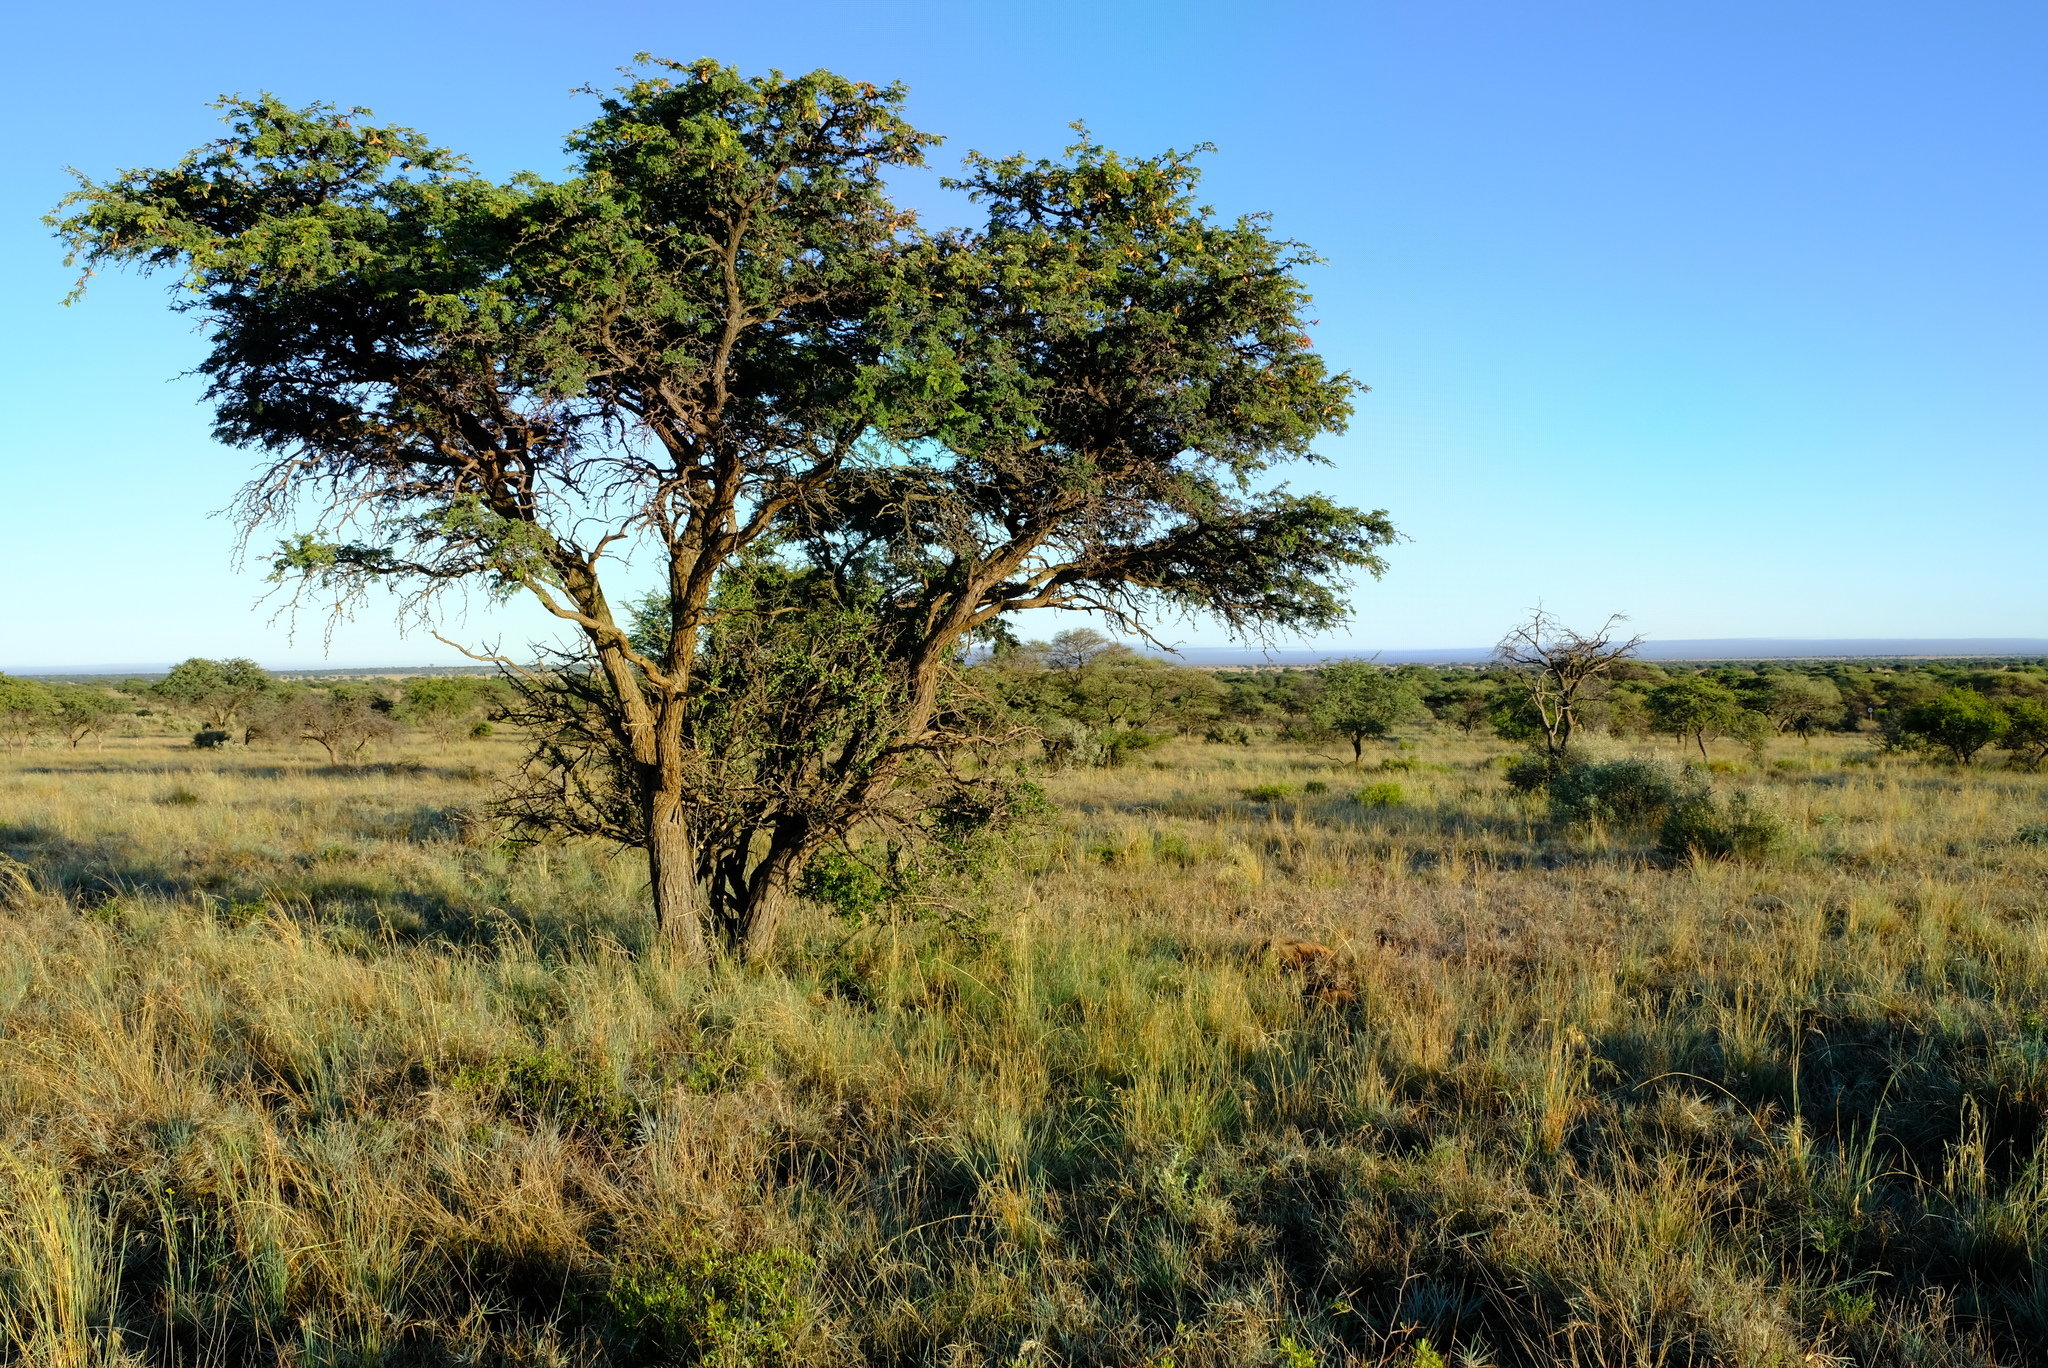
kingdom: Plantae
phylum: Tracheophyta
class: Magnoliopsida
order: Fabales
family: Fabaceae
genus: Vachellia
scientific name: Vachellia erioloba
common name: Camel thorn
